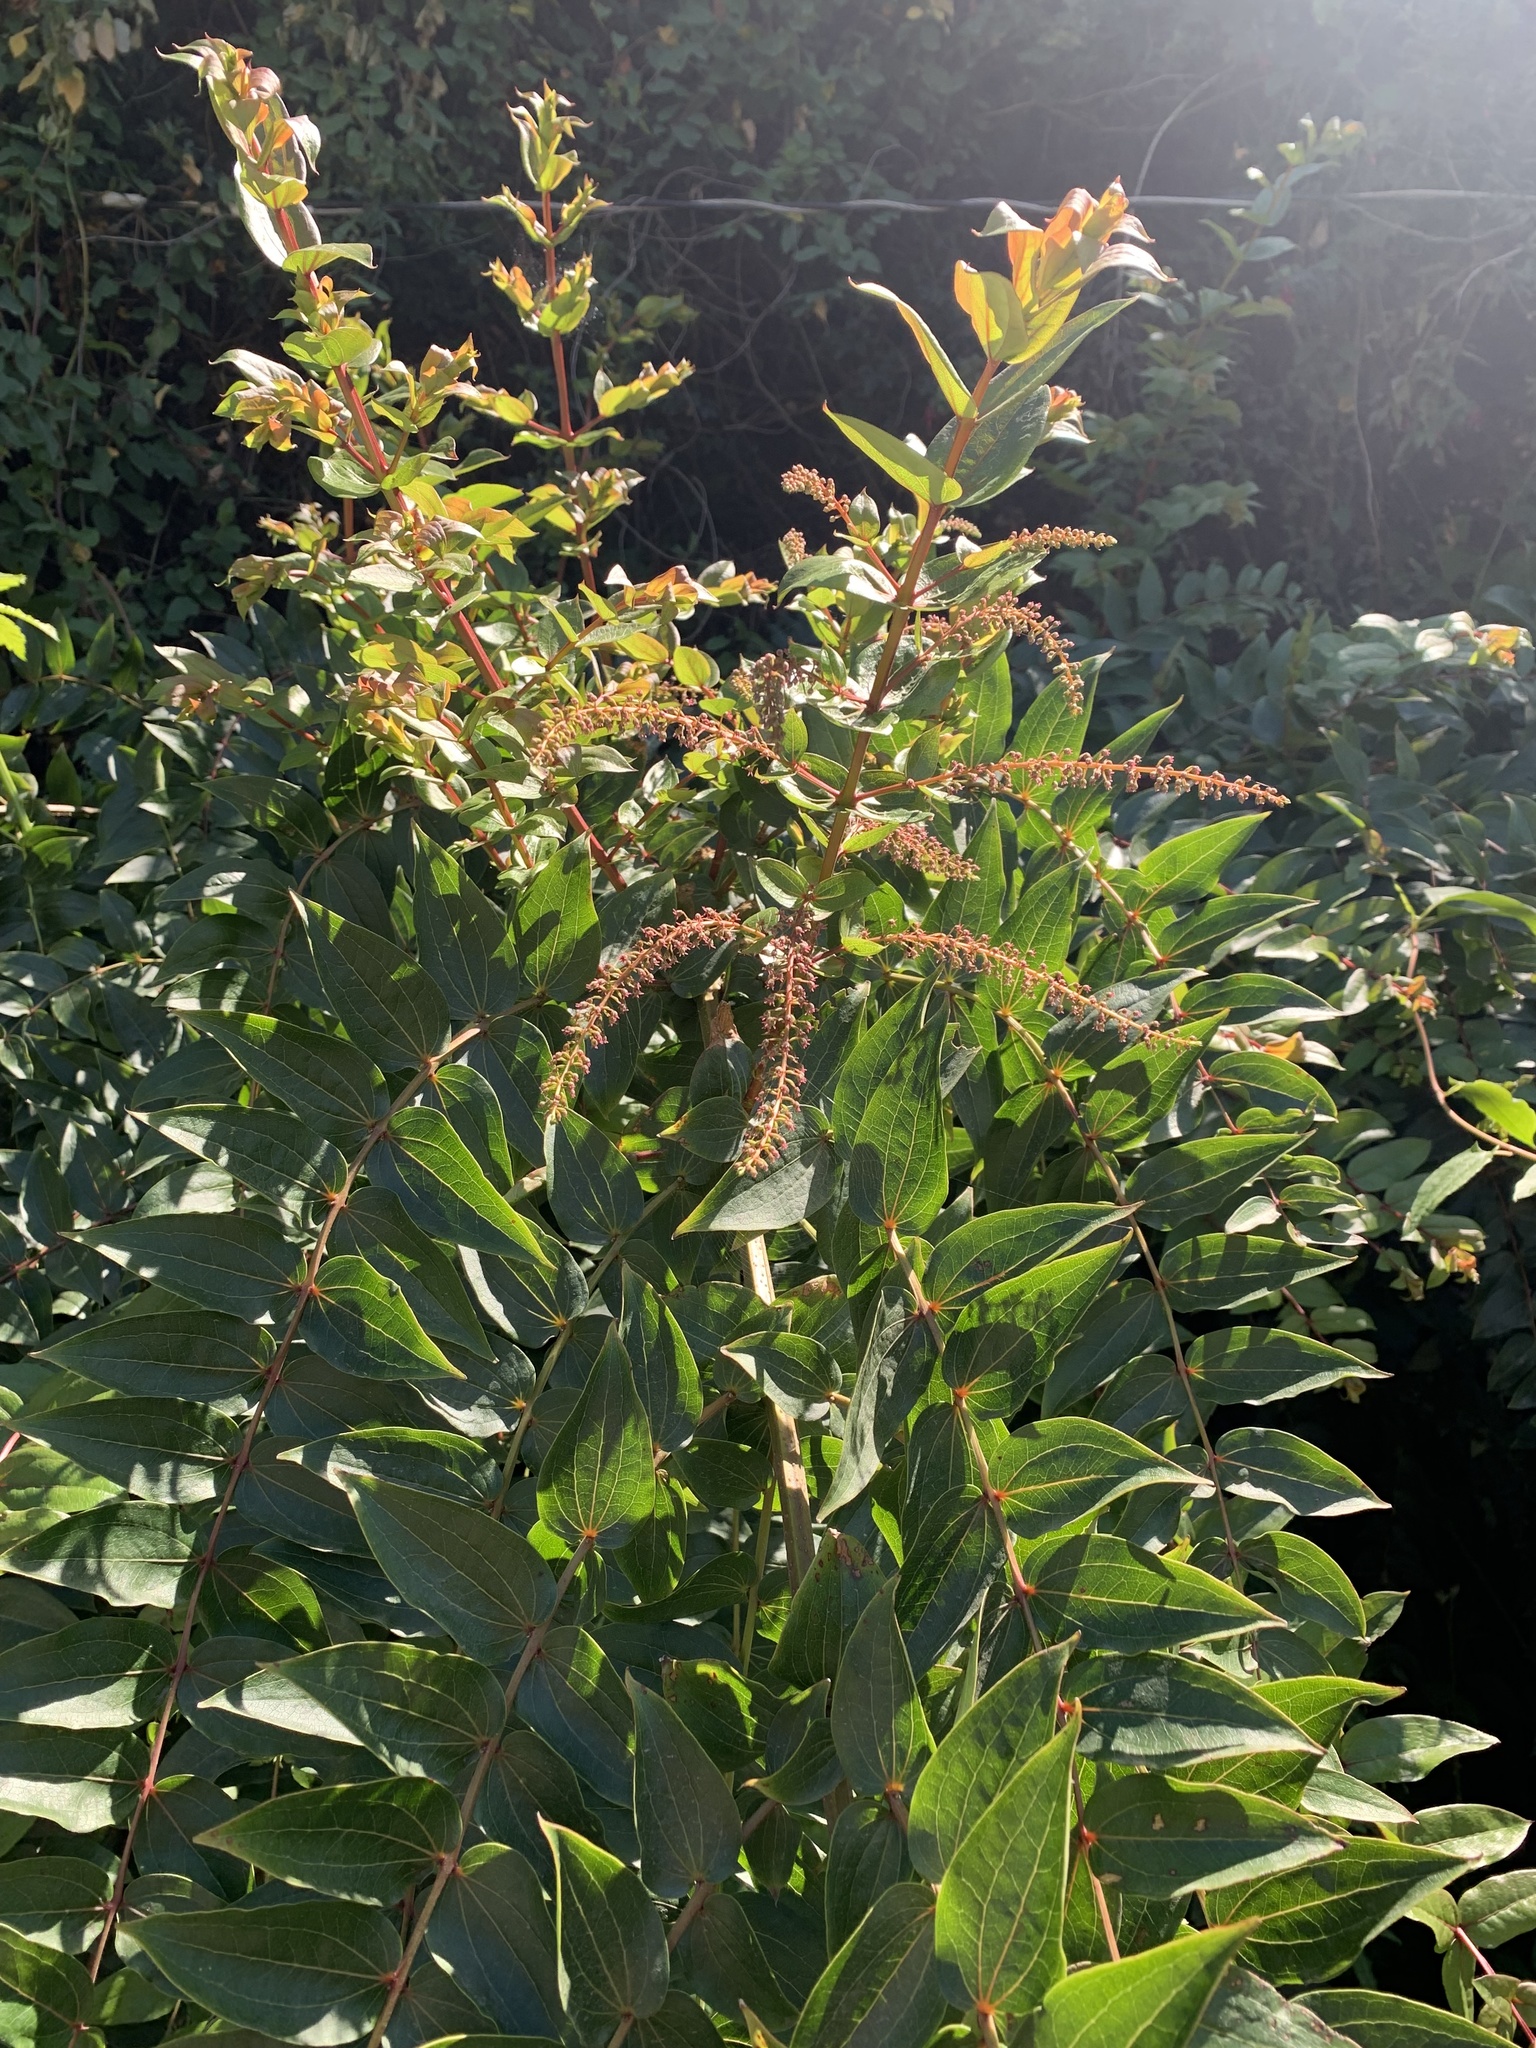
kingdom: Plantae
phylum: Tracheophyta
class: Magnoliopsida
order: Cucurbitales
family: Coriariaceae
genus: Coriaria
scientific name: Coriaria ruscifolia
